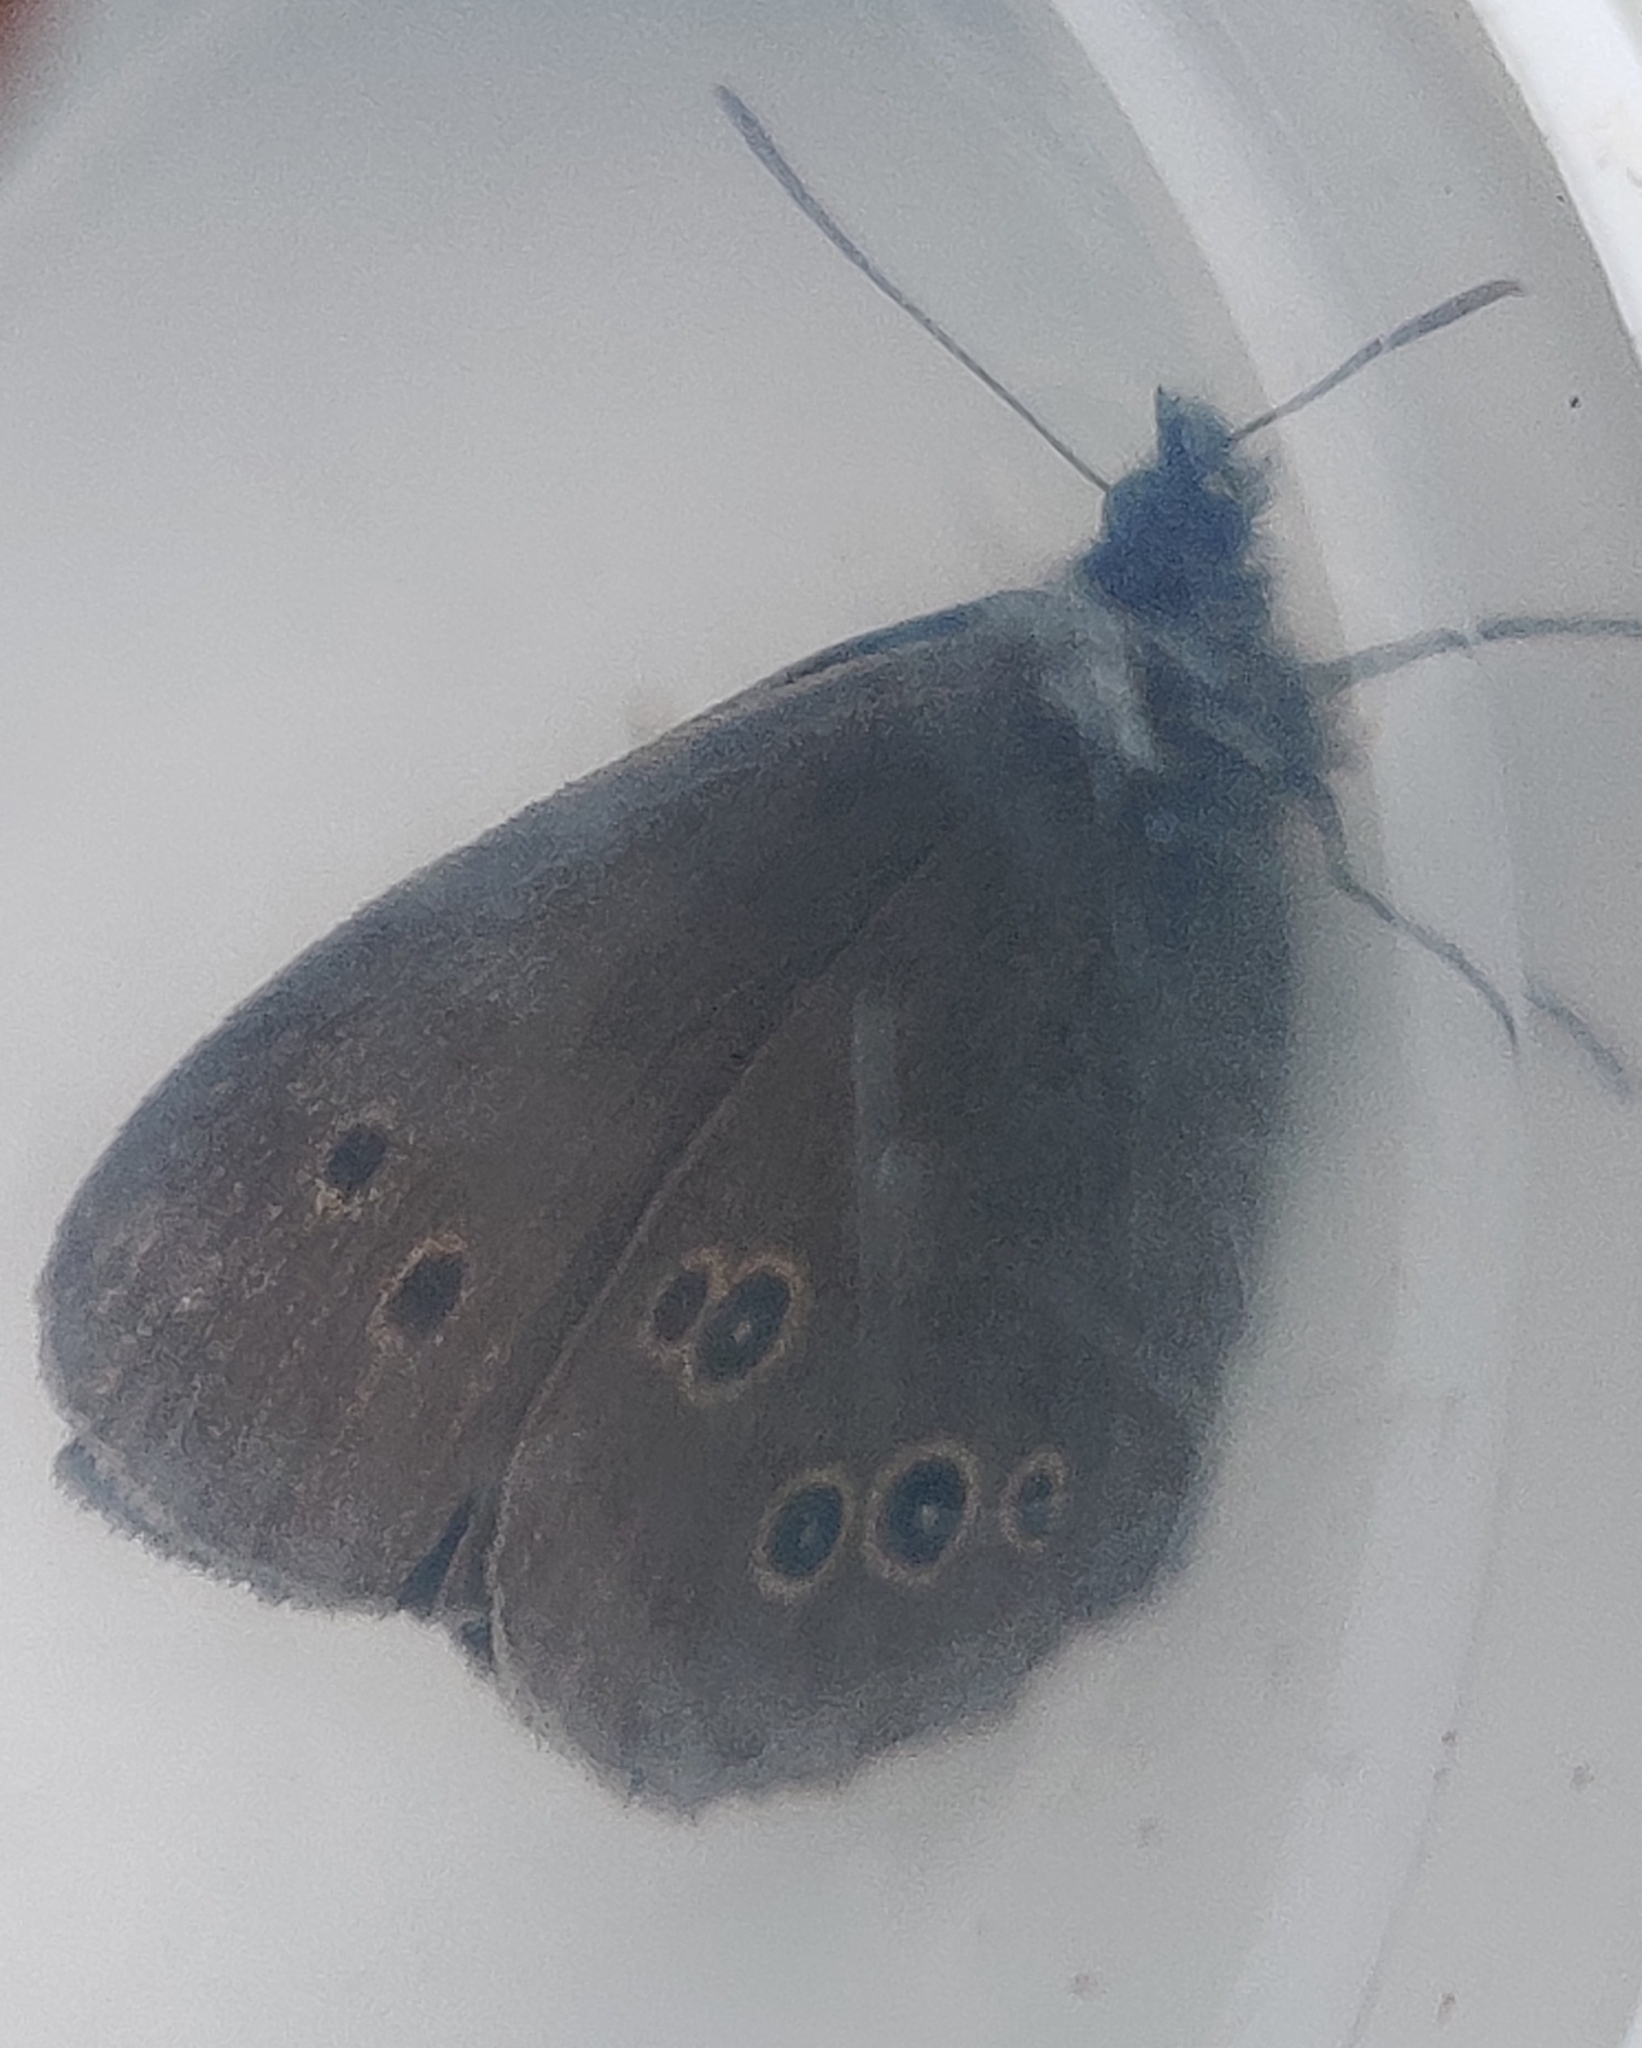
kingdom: Animalia
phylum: Arthropoda
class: Insecta
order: Lepidoptera
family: Nymphalidae
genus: Aphantopus
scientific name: Aphantopus hyperantus
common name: Ringlet
